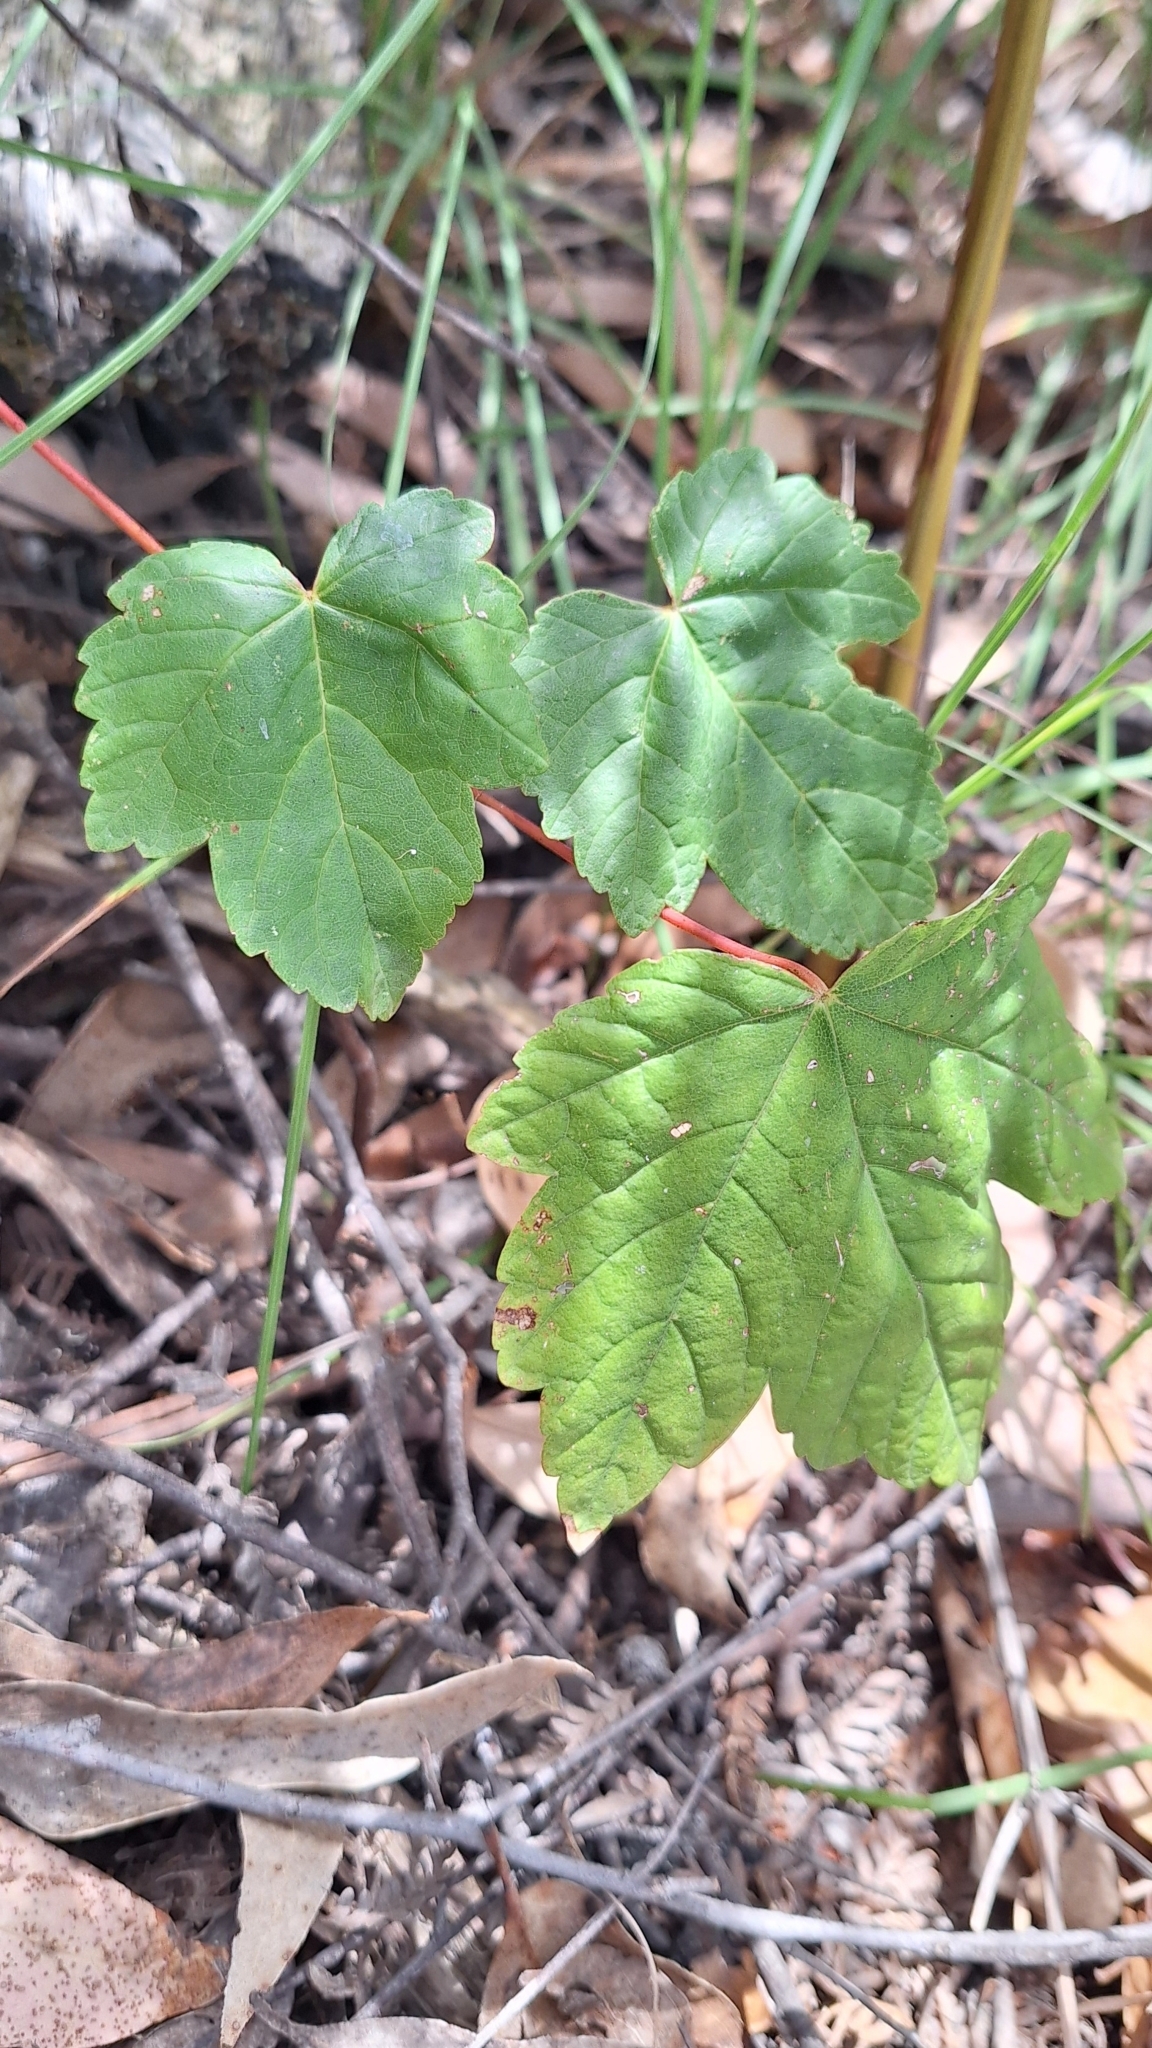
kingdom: Plantae
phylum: Tracheophyta
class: Magnoliopsida
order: Sapindales
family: Sapindaceae
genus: Acer
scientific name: Acer pseudoplatanus
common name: Sycamore
